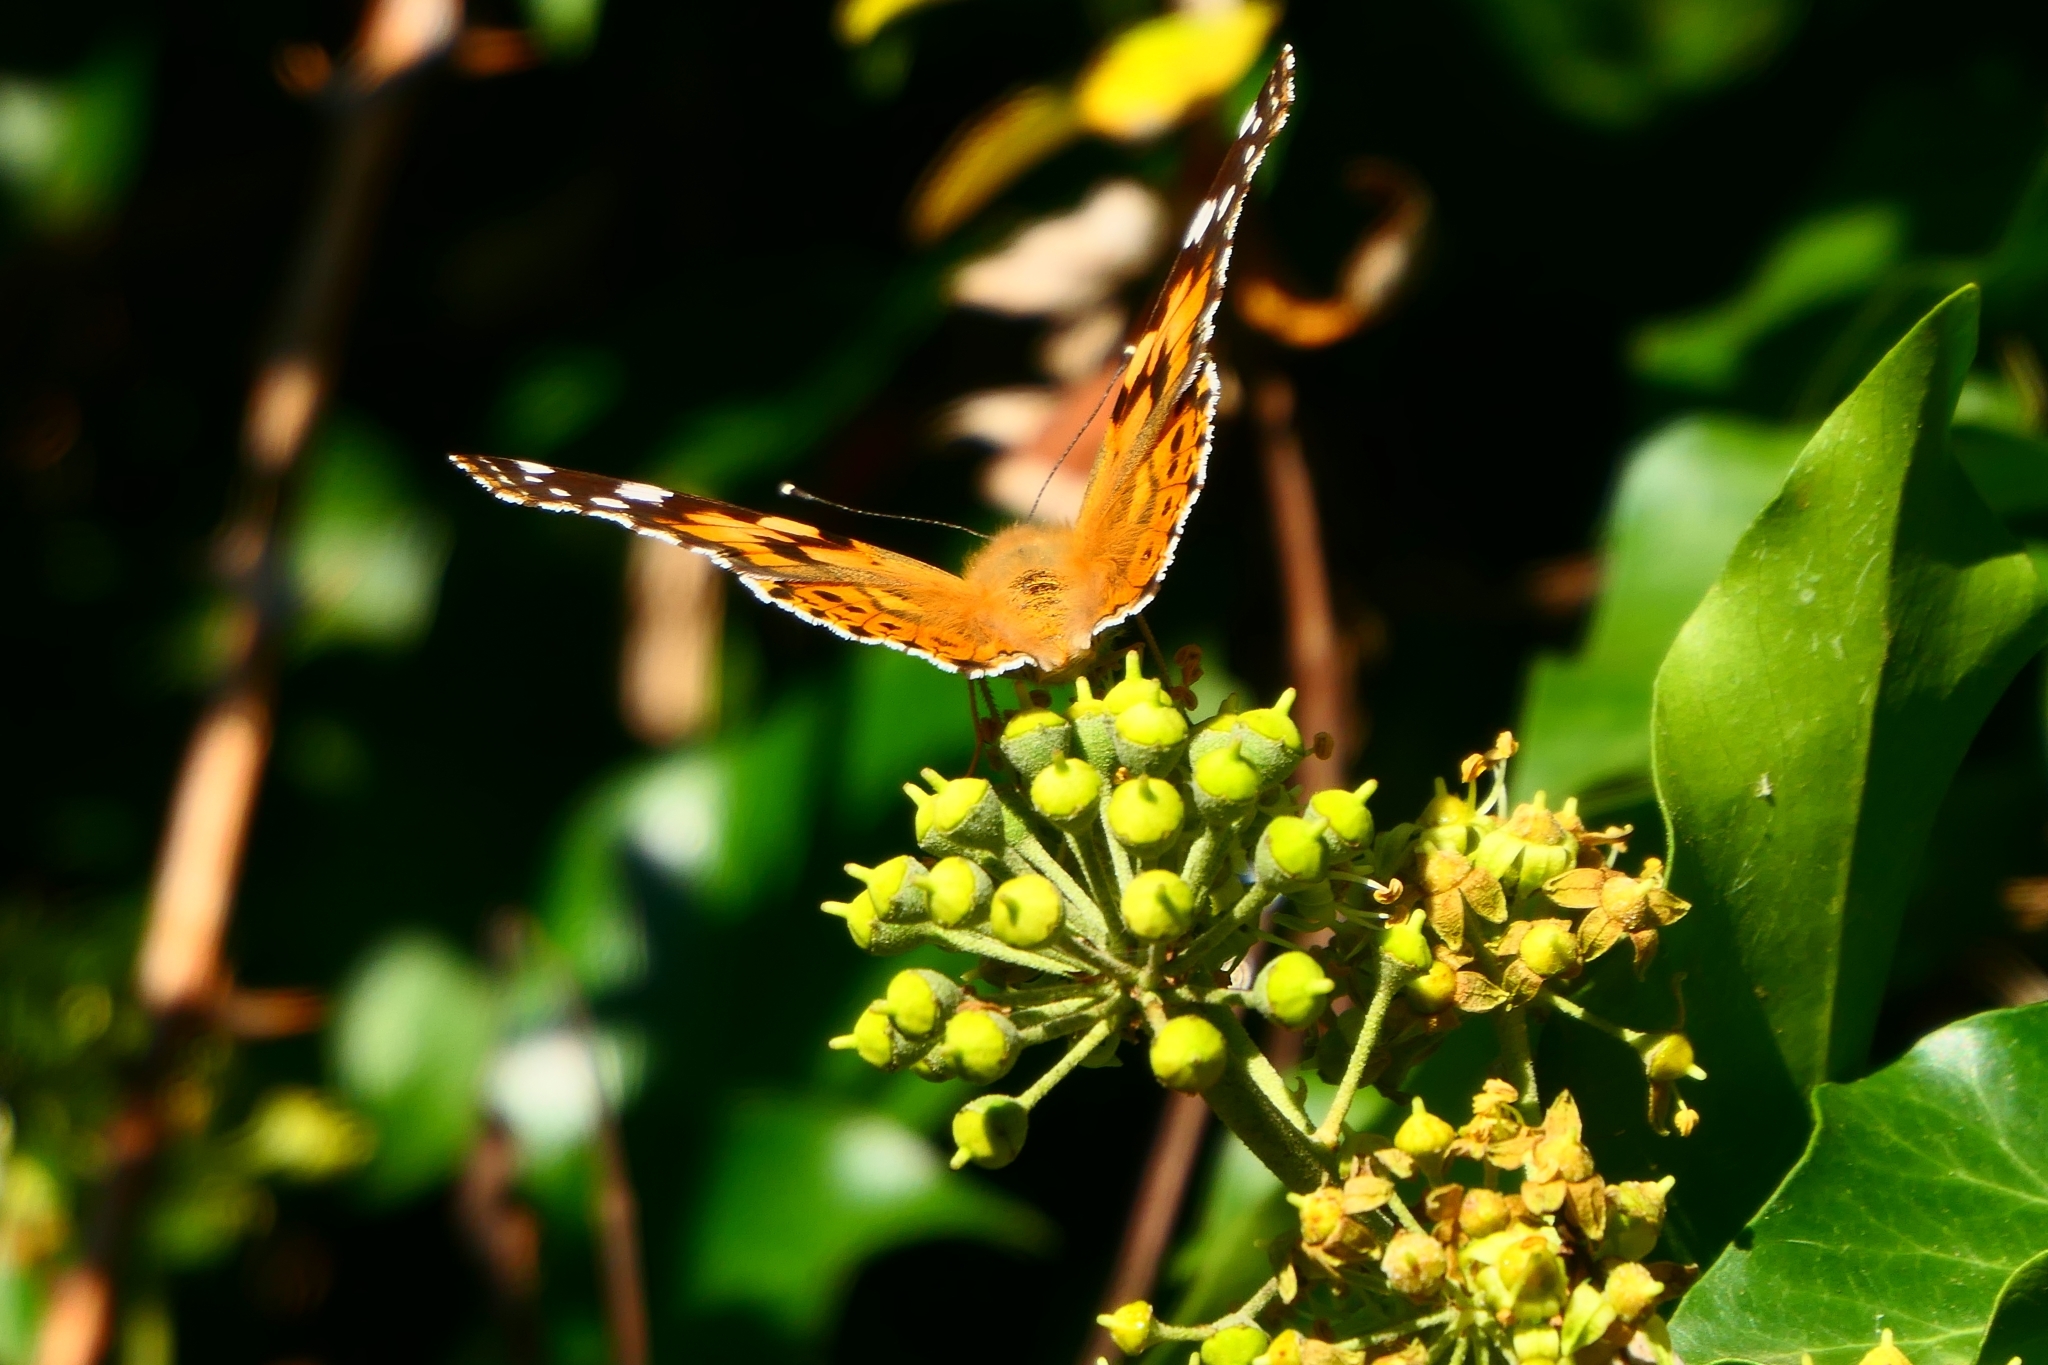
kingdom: Animalia
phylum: Arthropoda
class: Insecta
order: Lepidoptera
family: Nymphalidae
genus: Vanessa
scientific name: Vanessa cardui
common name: Painted lady
